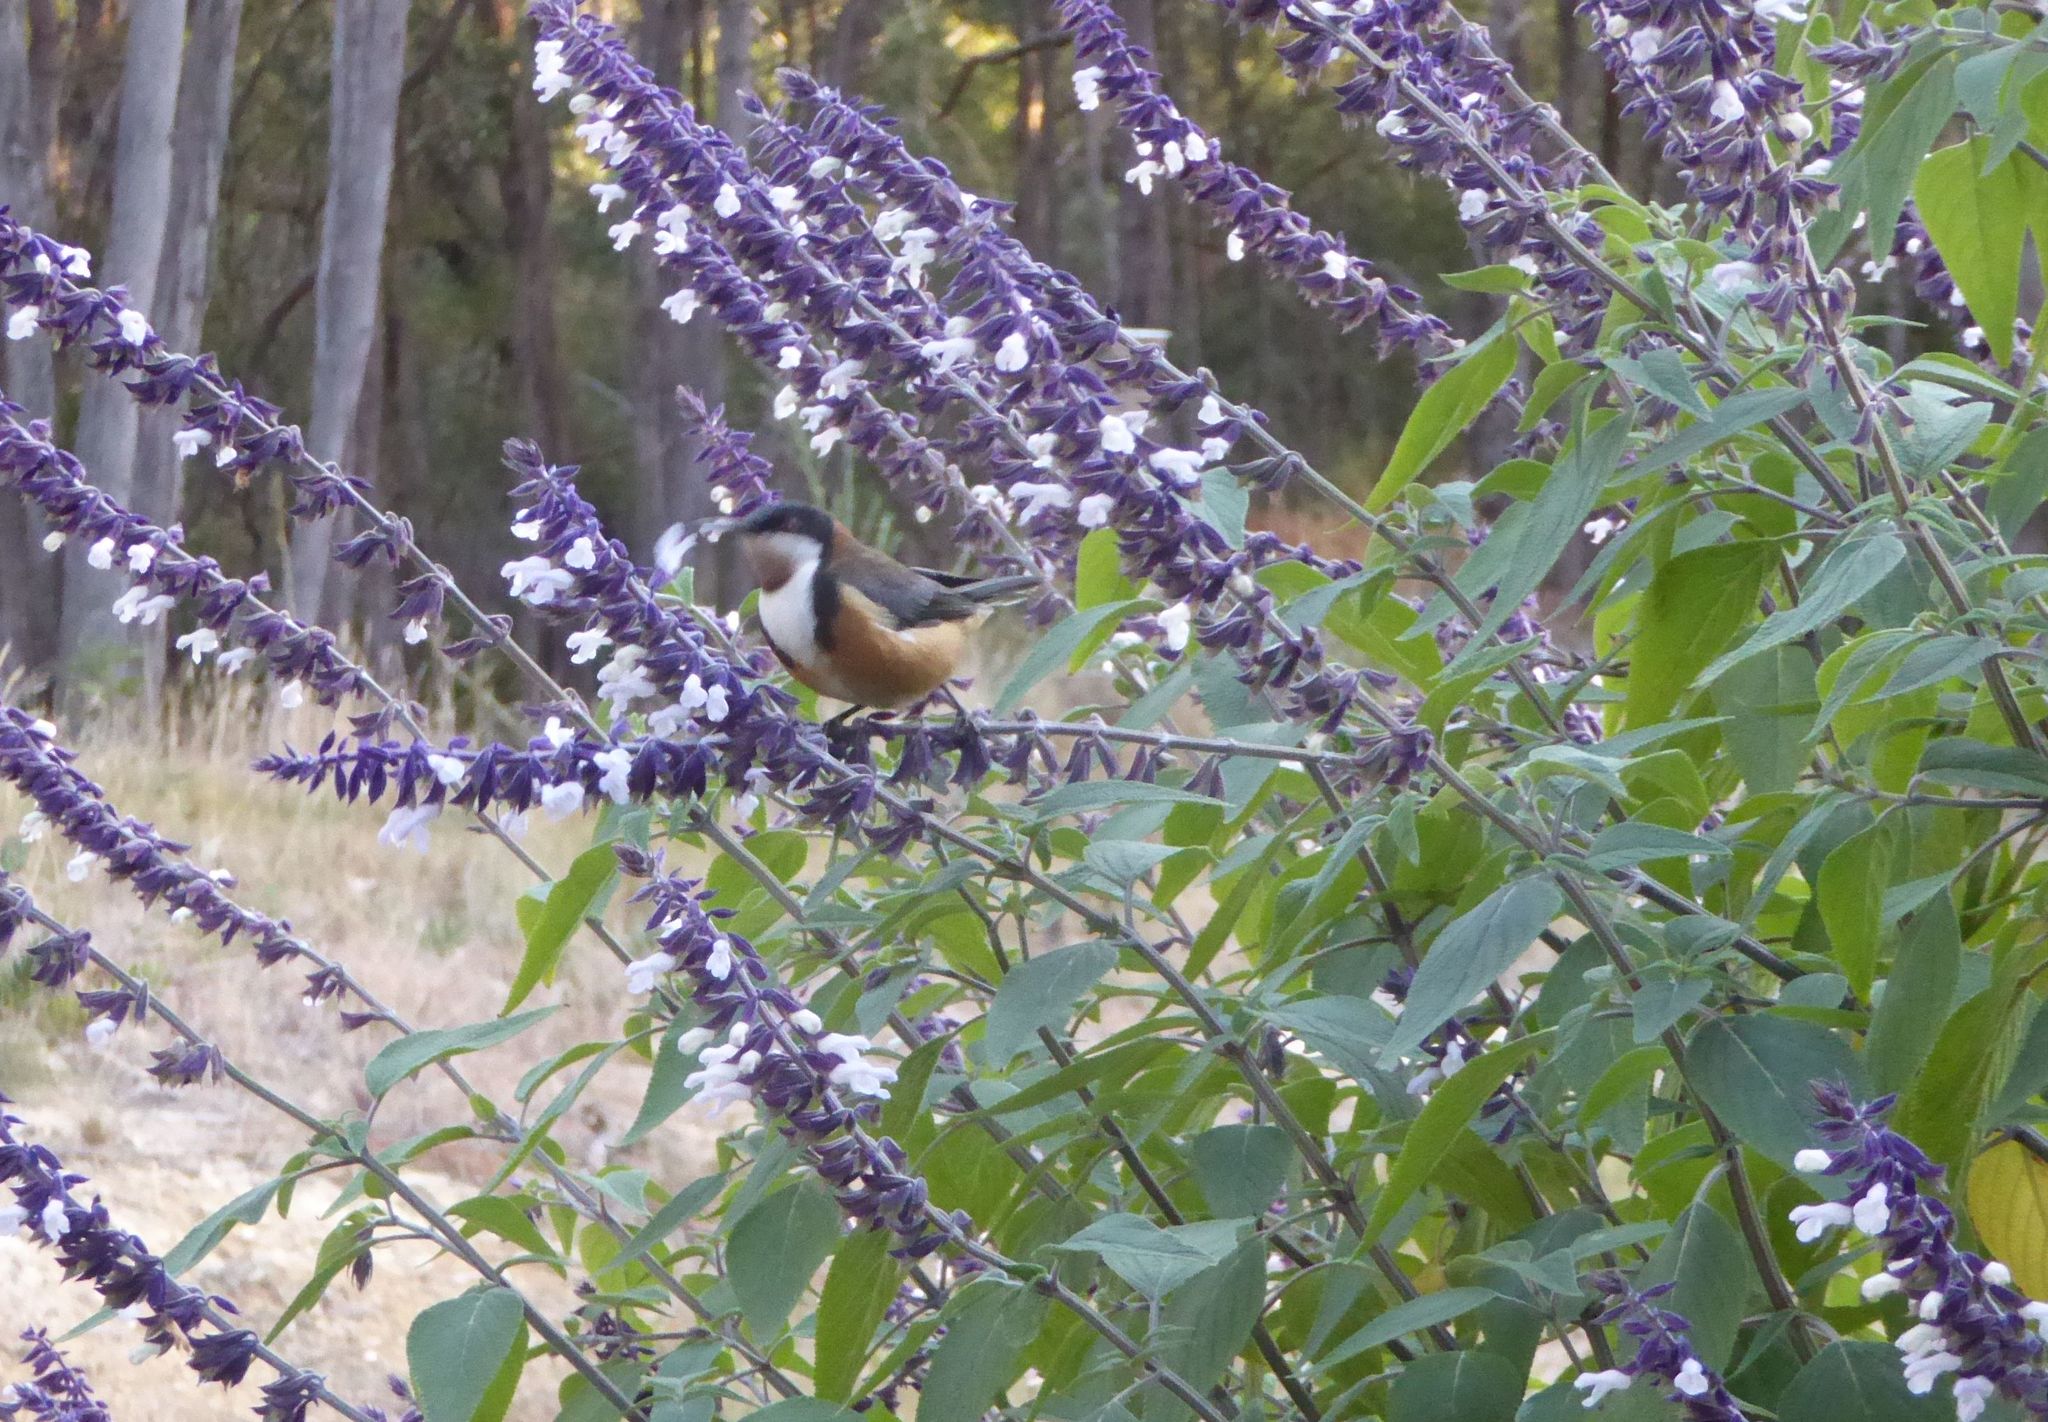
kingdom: Animalia
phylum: Chordata
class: Aves
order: Passeriformes
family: Meliphagidae
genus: Acanthorhynchus
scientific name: Acanthorhynchus tenuirostris
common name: Eastern spinebill
